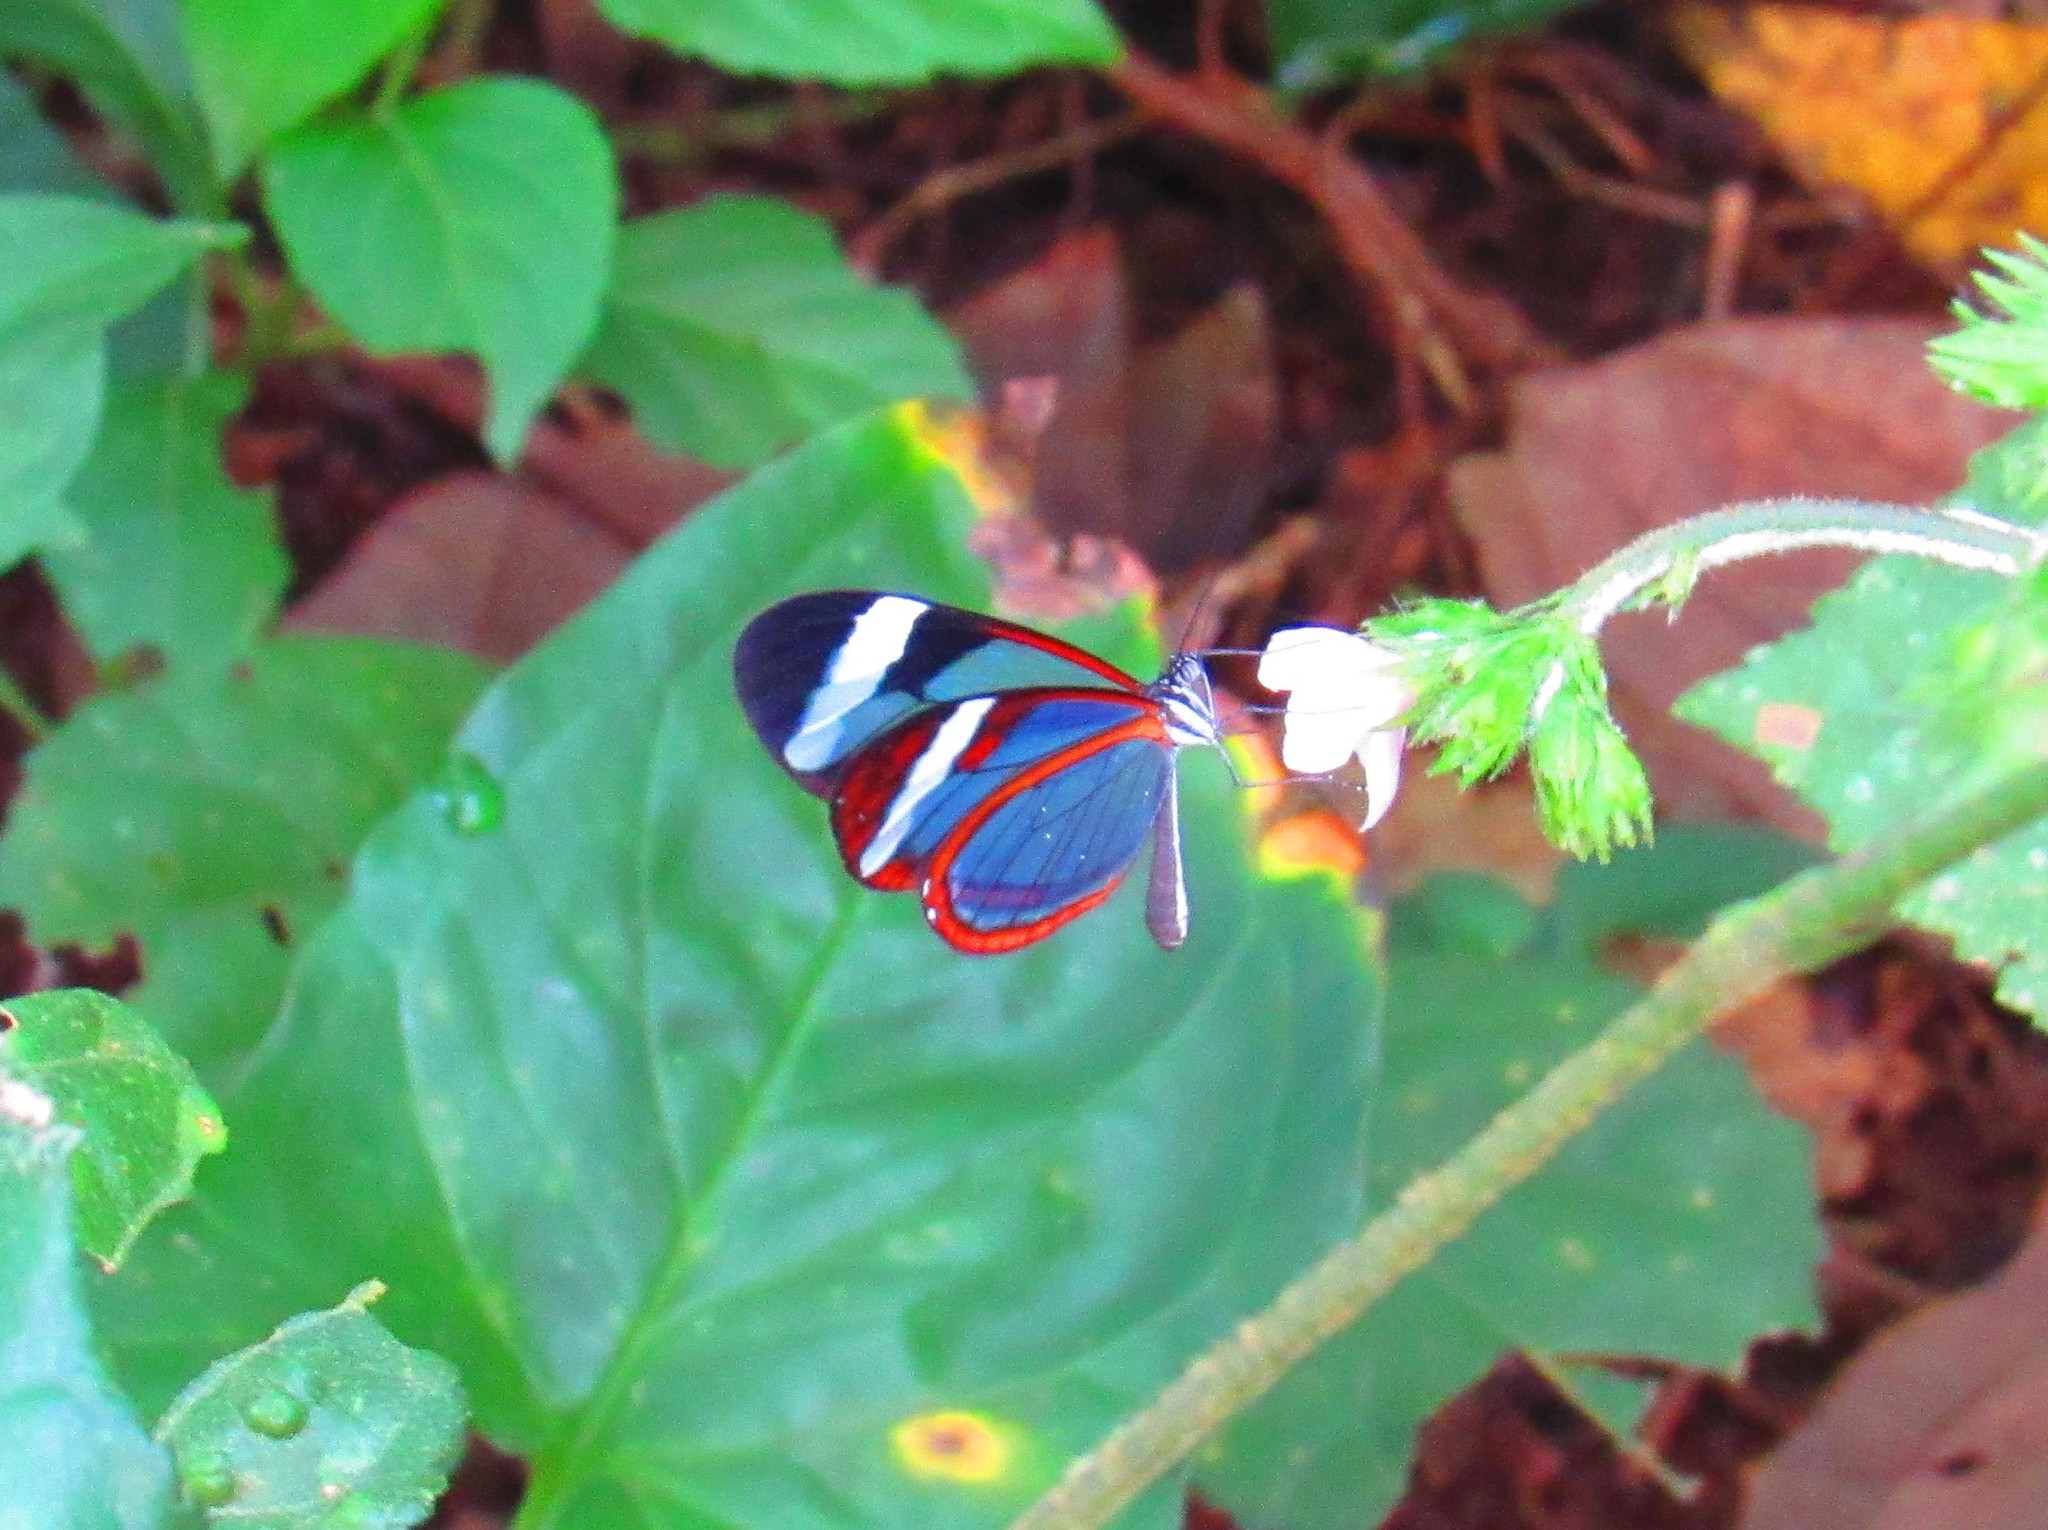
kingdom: Animalia
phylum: Arthropoda
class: Insecta
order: Lepidoptera
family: Nymphalidae
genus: Oleria
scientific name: Oleria paula
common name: Paula's clearwing
